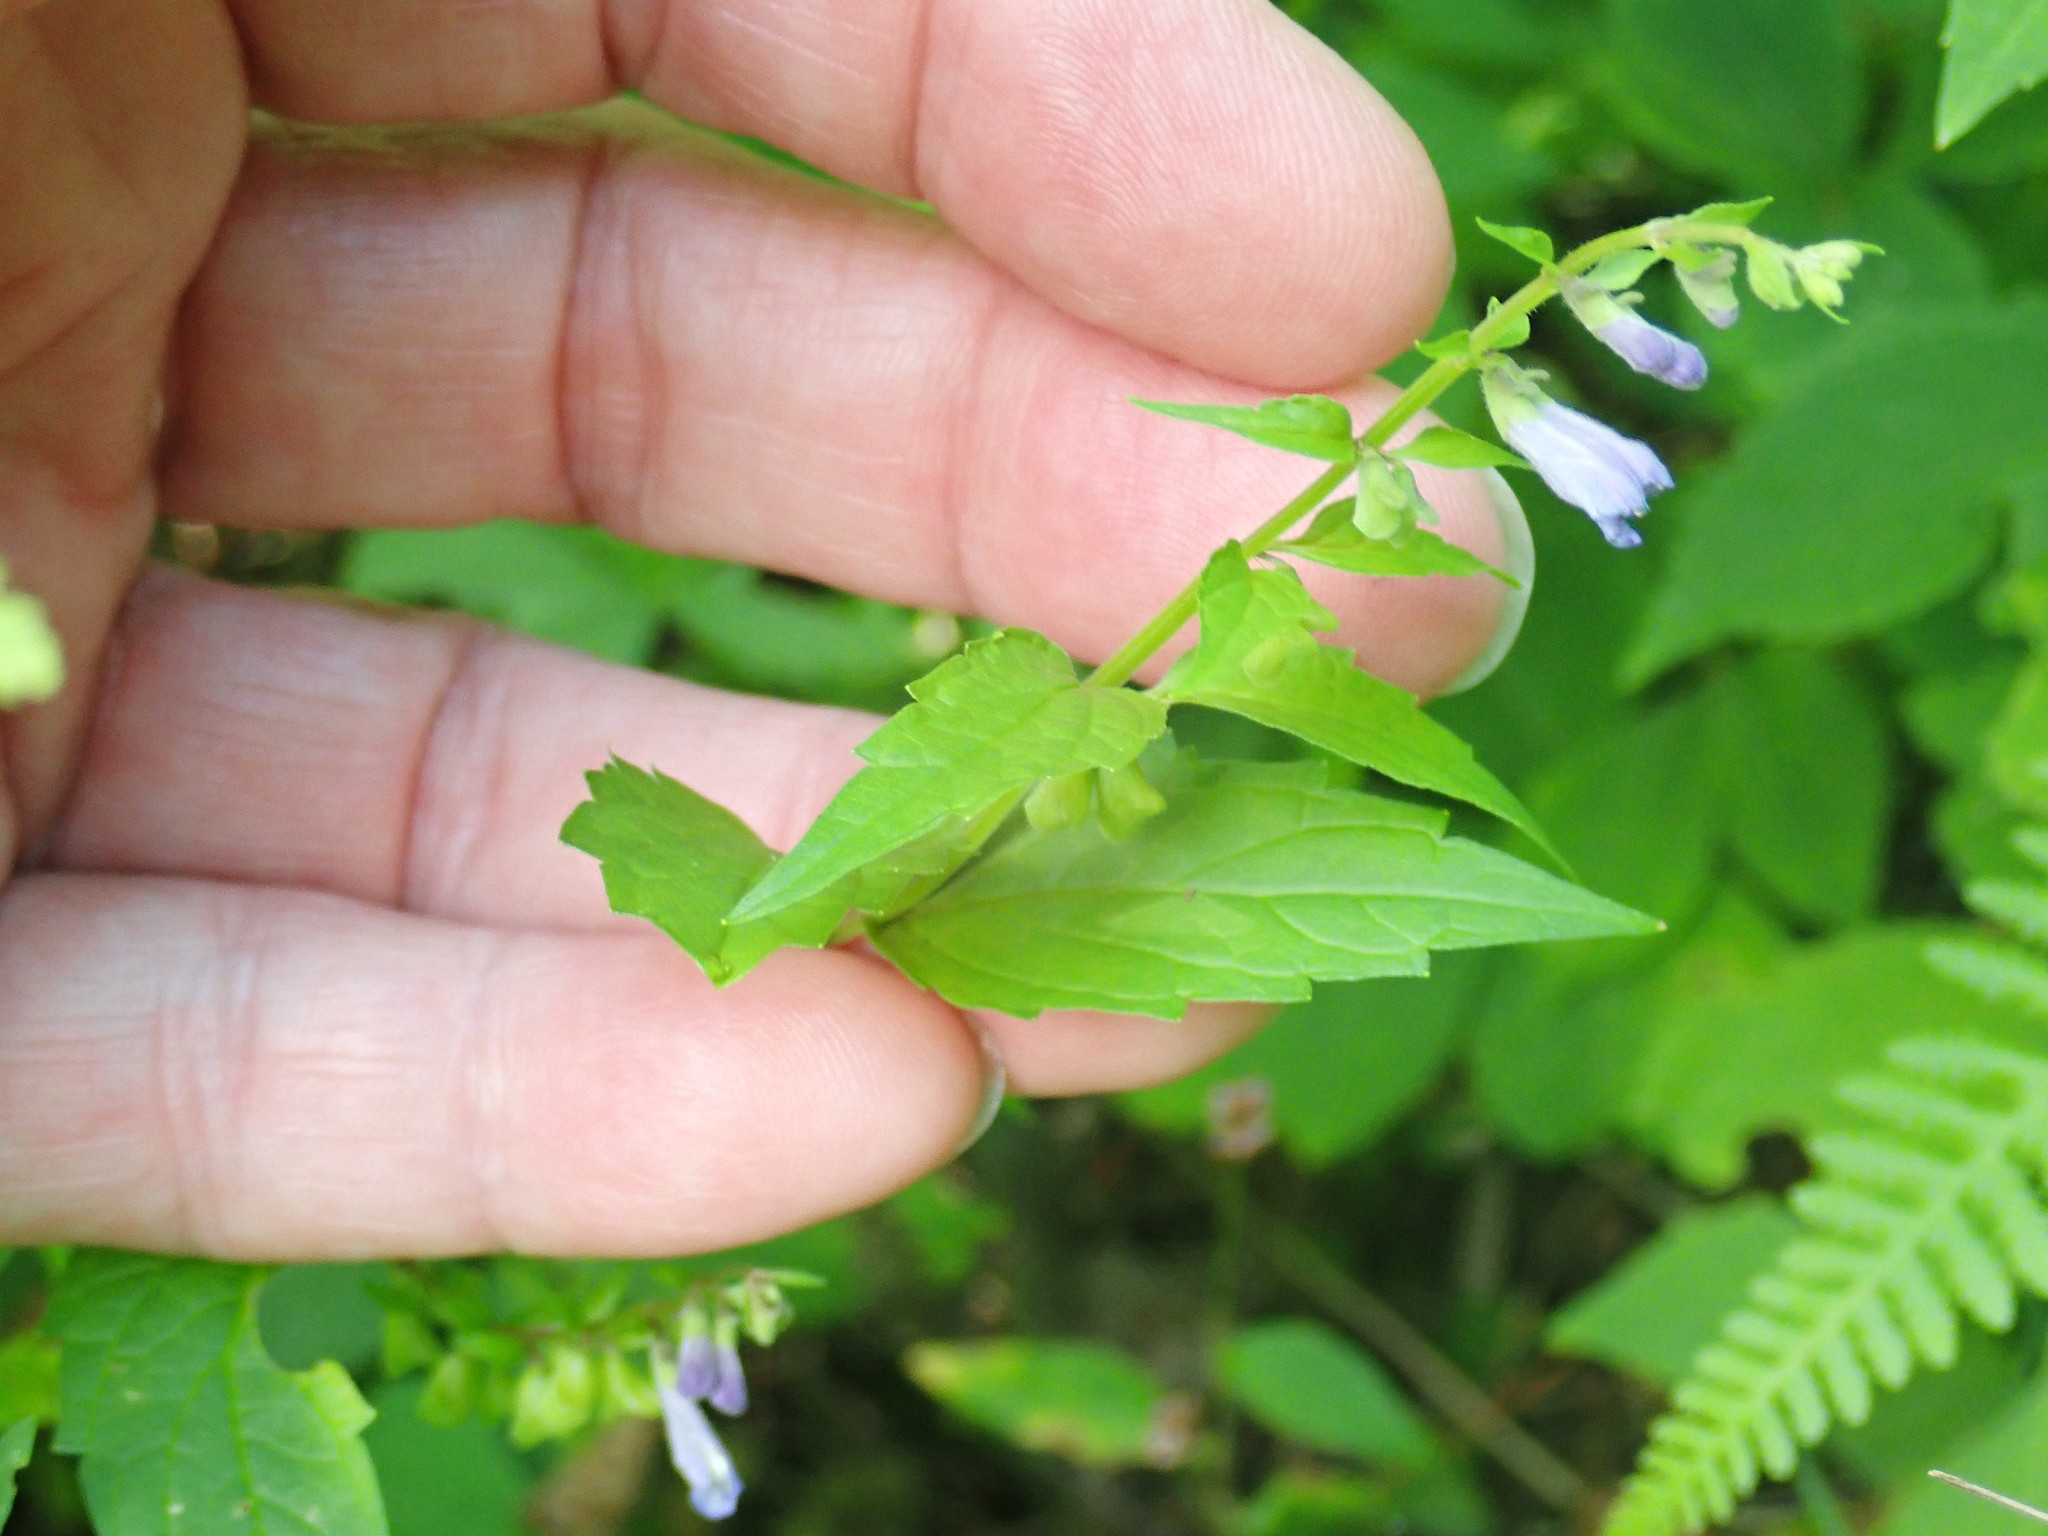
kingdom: Plantae
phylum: Tracheophyta
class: Magnoliopsida
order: Lamiales
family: Lamiaceae
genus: Scutellaria
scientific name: Scutellaria lateriflora
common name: Blue skullcap
